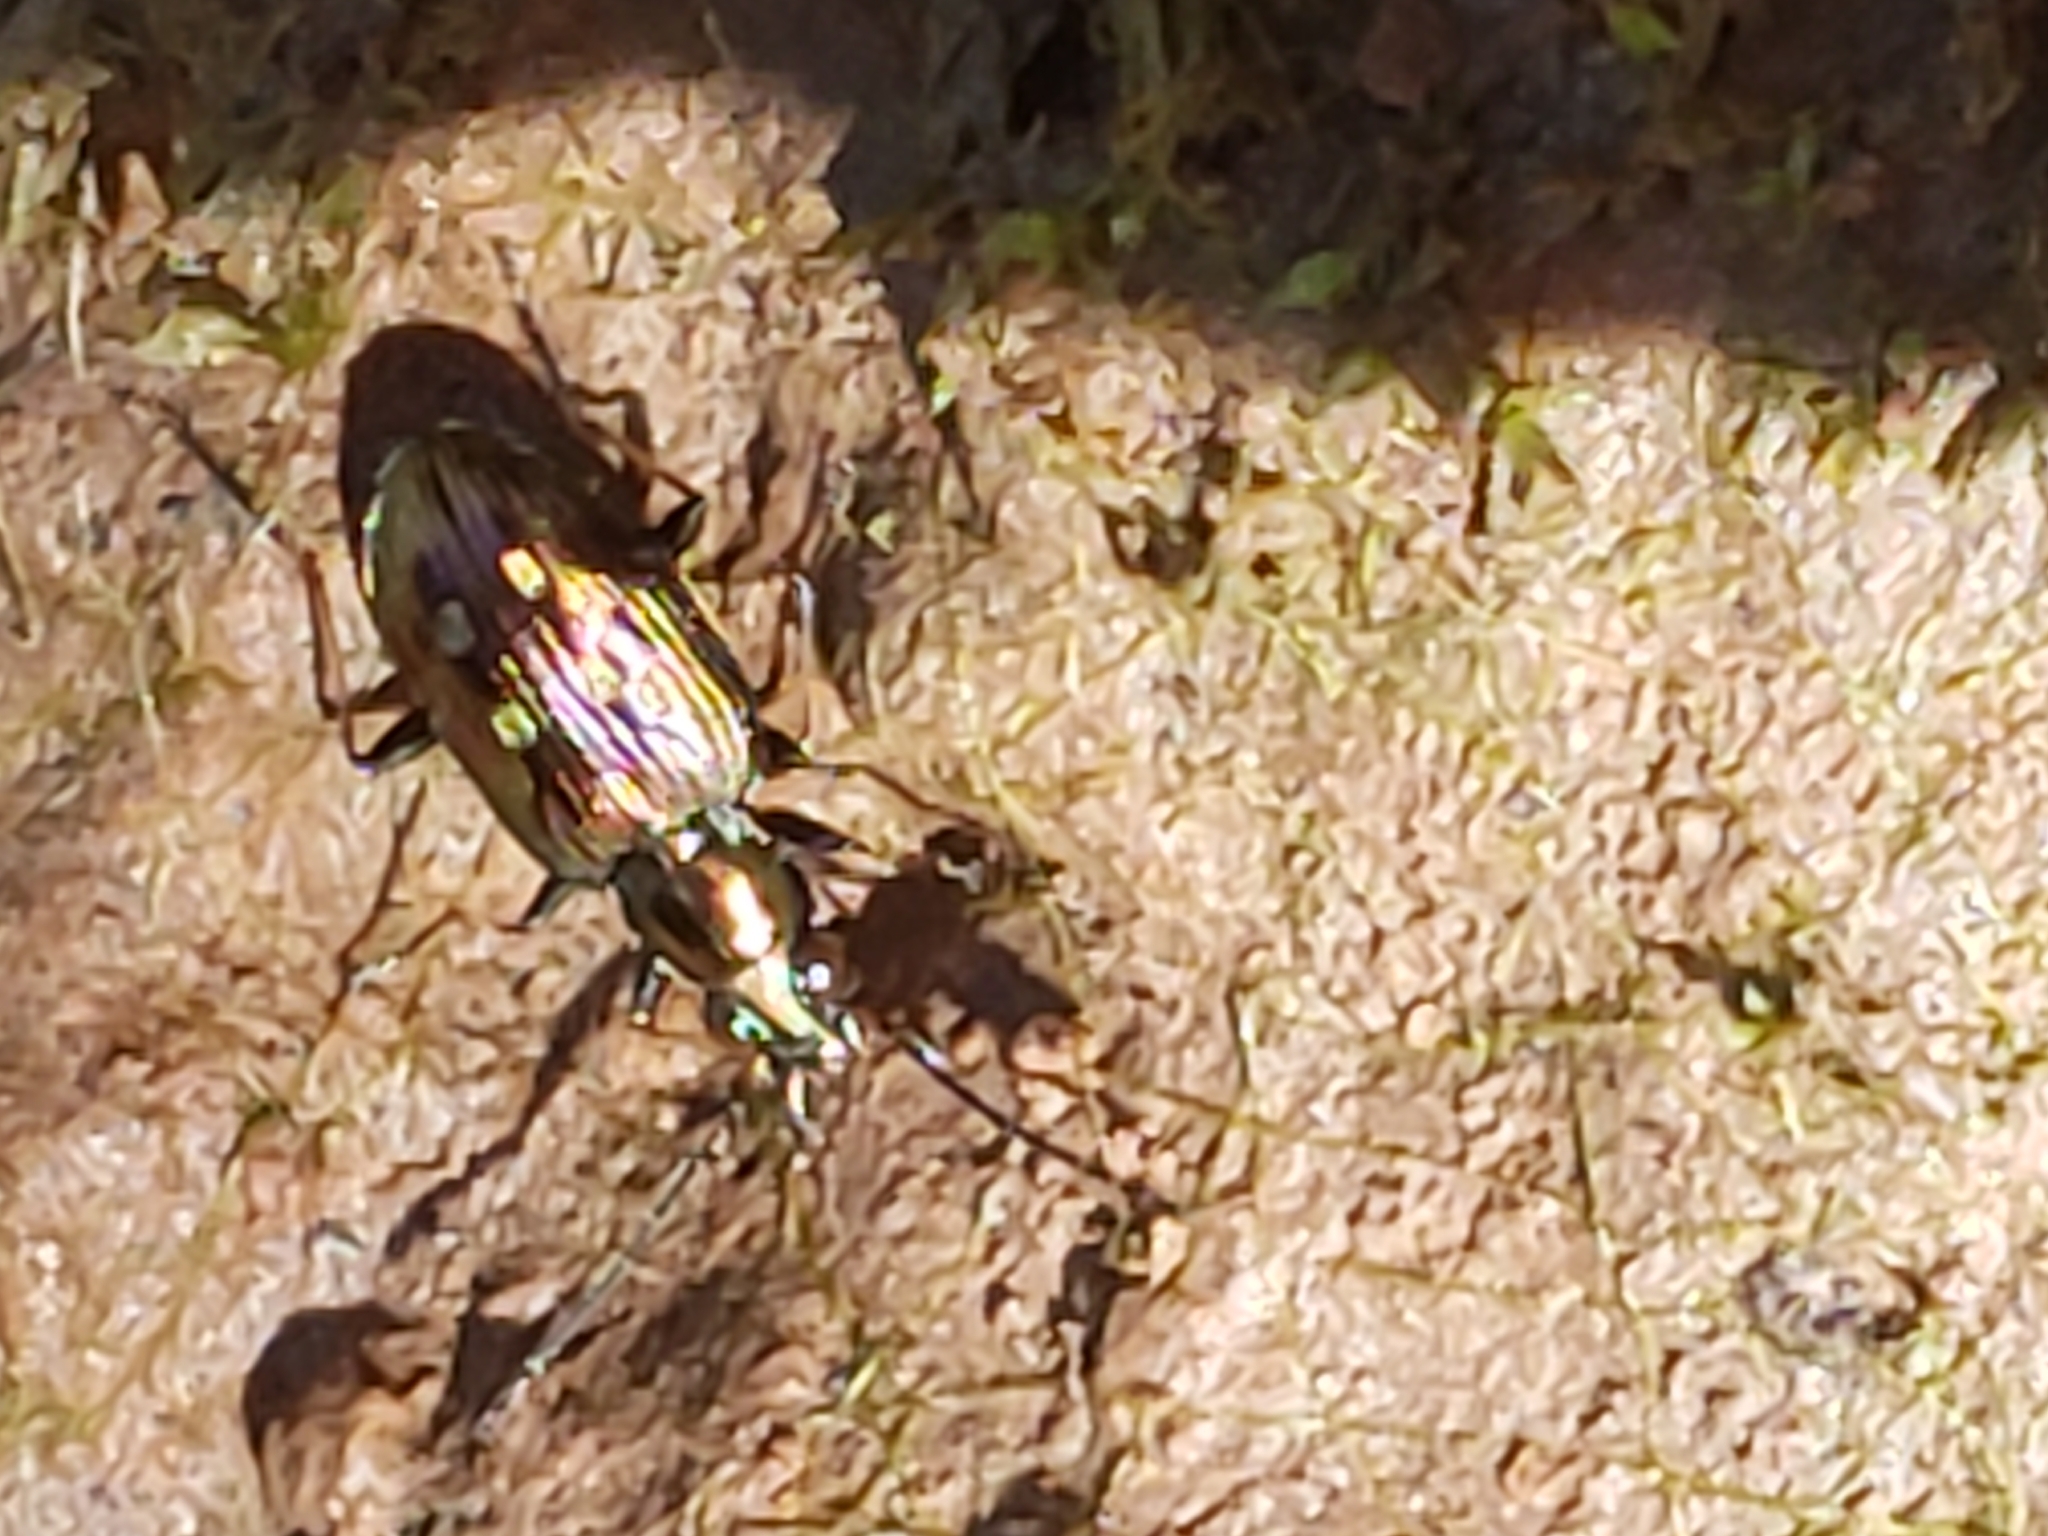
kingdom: Animalia
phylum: Arthropoda
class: Insecta
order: Coleoptera
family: Carabidae
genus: Bembidion
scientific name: Bembidion inaequale
